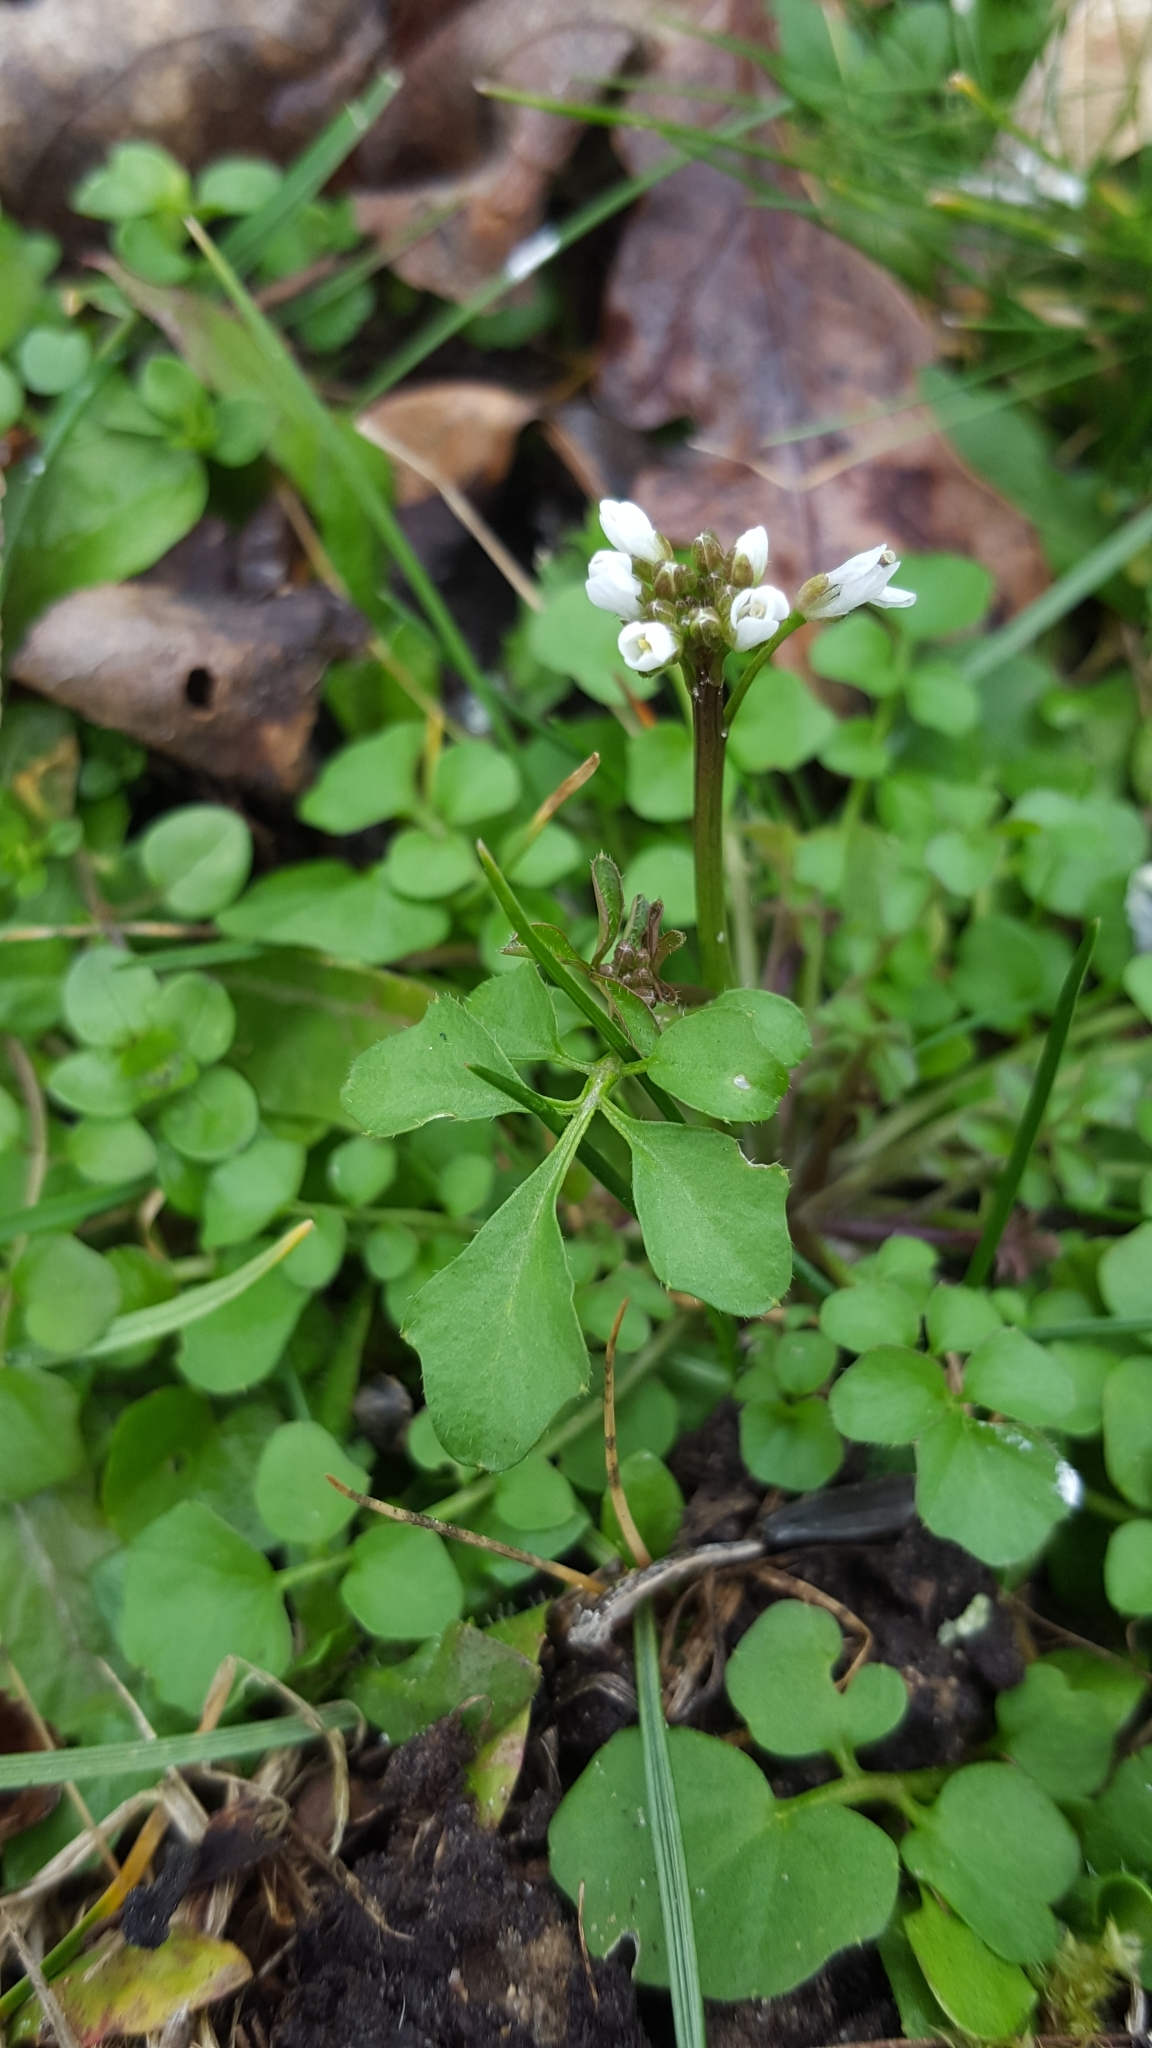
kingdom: Plantae
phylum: Tracheophyta
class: Magnoliopsida
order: Brassicales
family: Brassicaceae
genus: Cardamine
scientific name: Cardamine hirsuta
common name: Hairy bittercress
